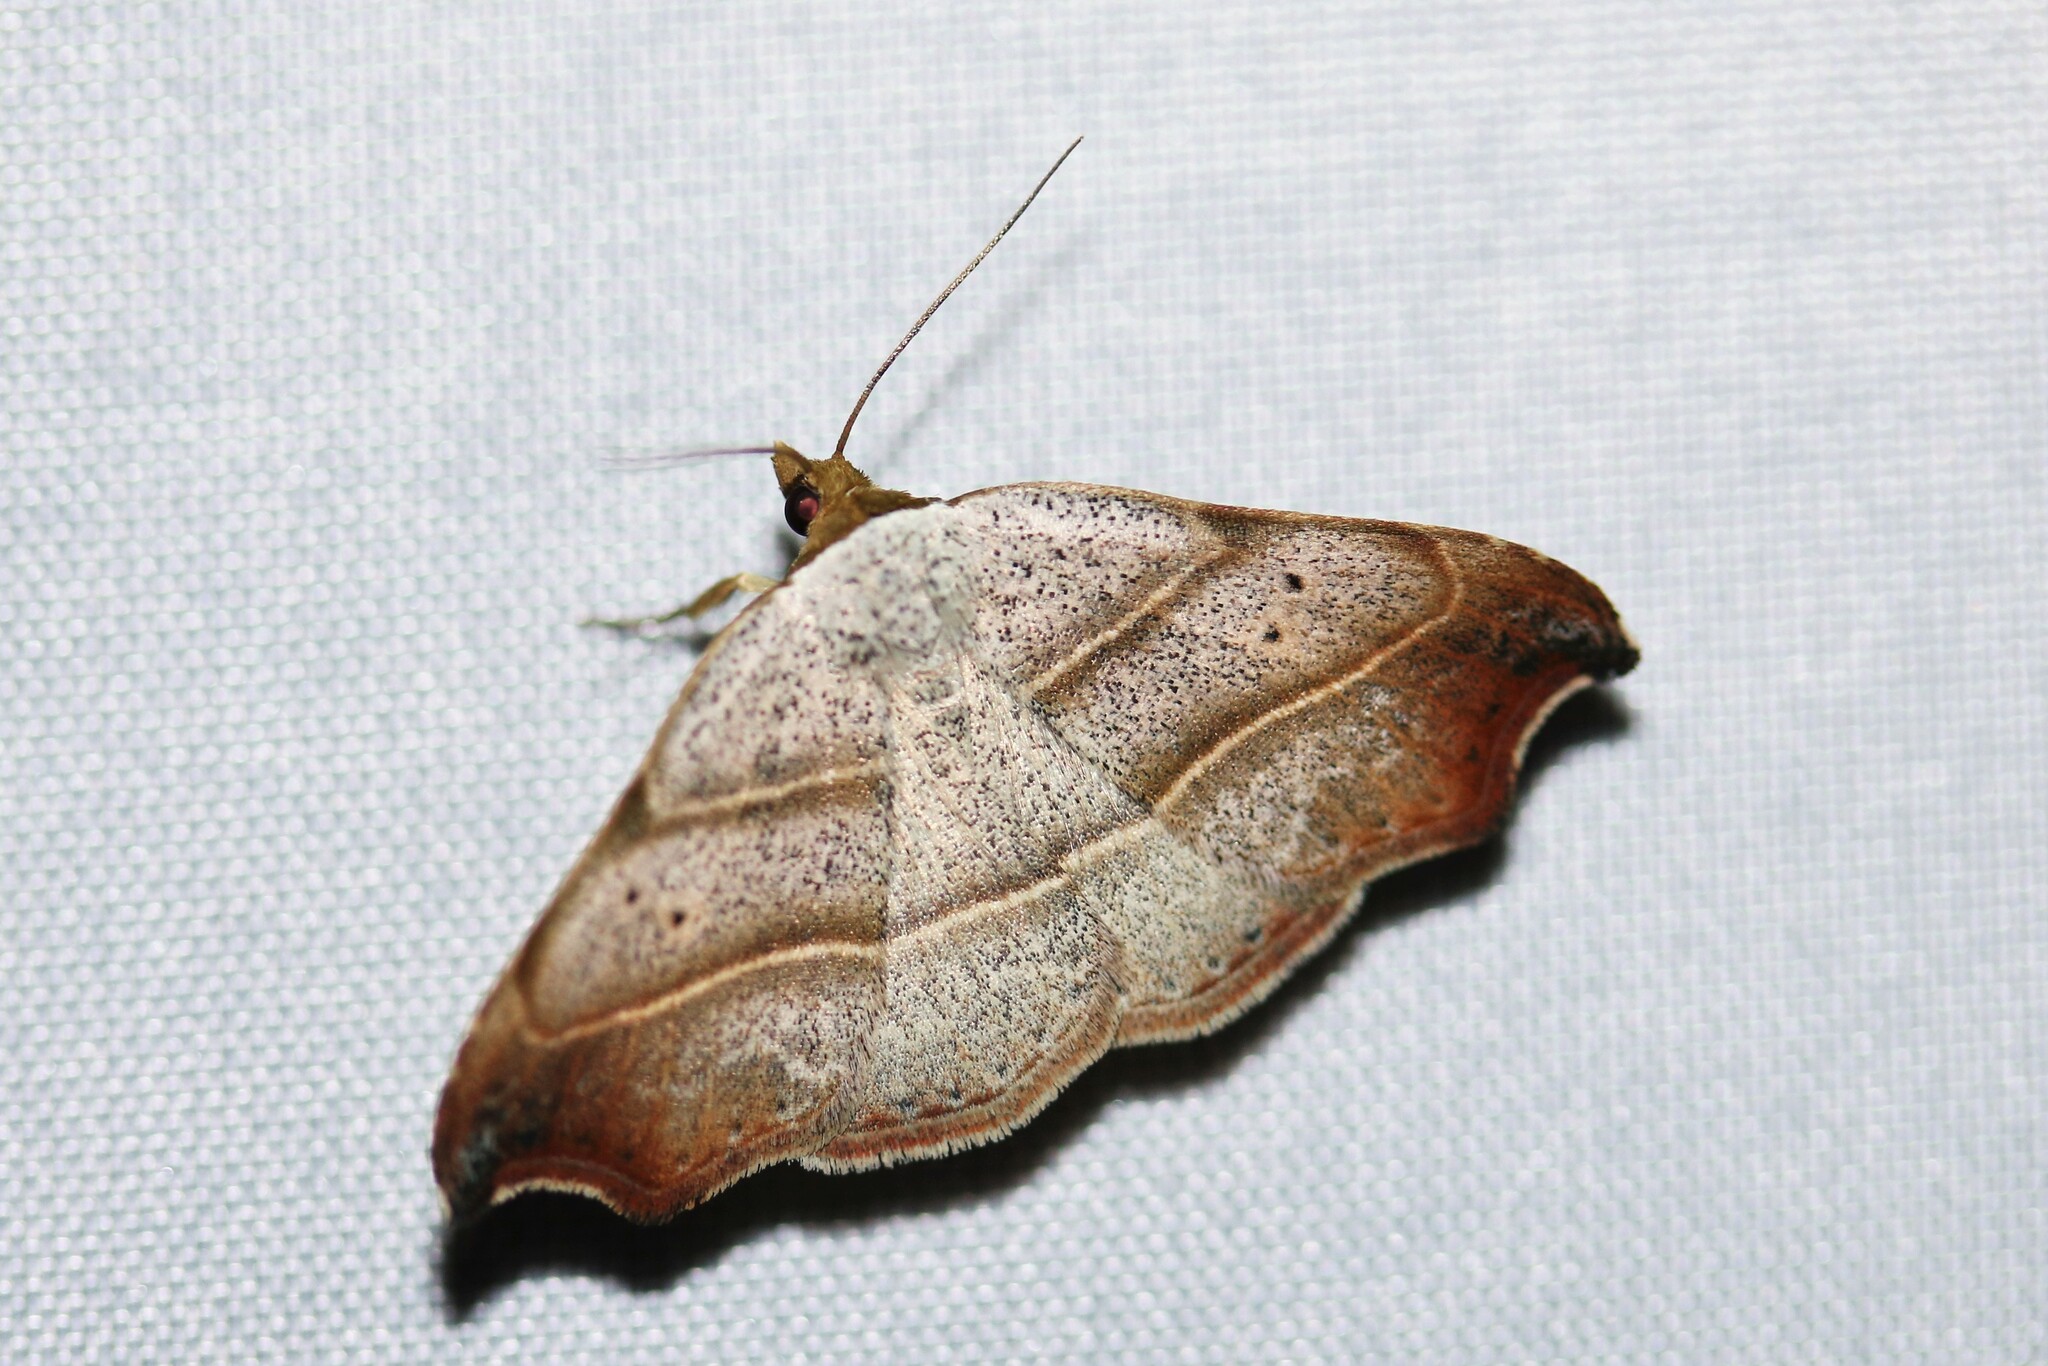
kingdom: Animalia
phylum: Arthropoda
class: Insecta
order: Lepidoptera
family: Erebidae
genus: Laspeyria
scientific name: Laspeyria flexula
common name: Beautiful hook-tip
